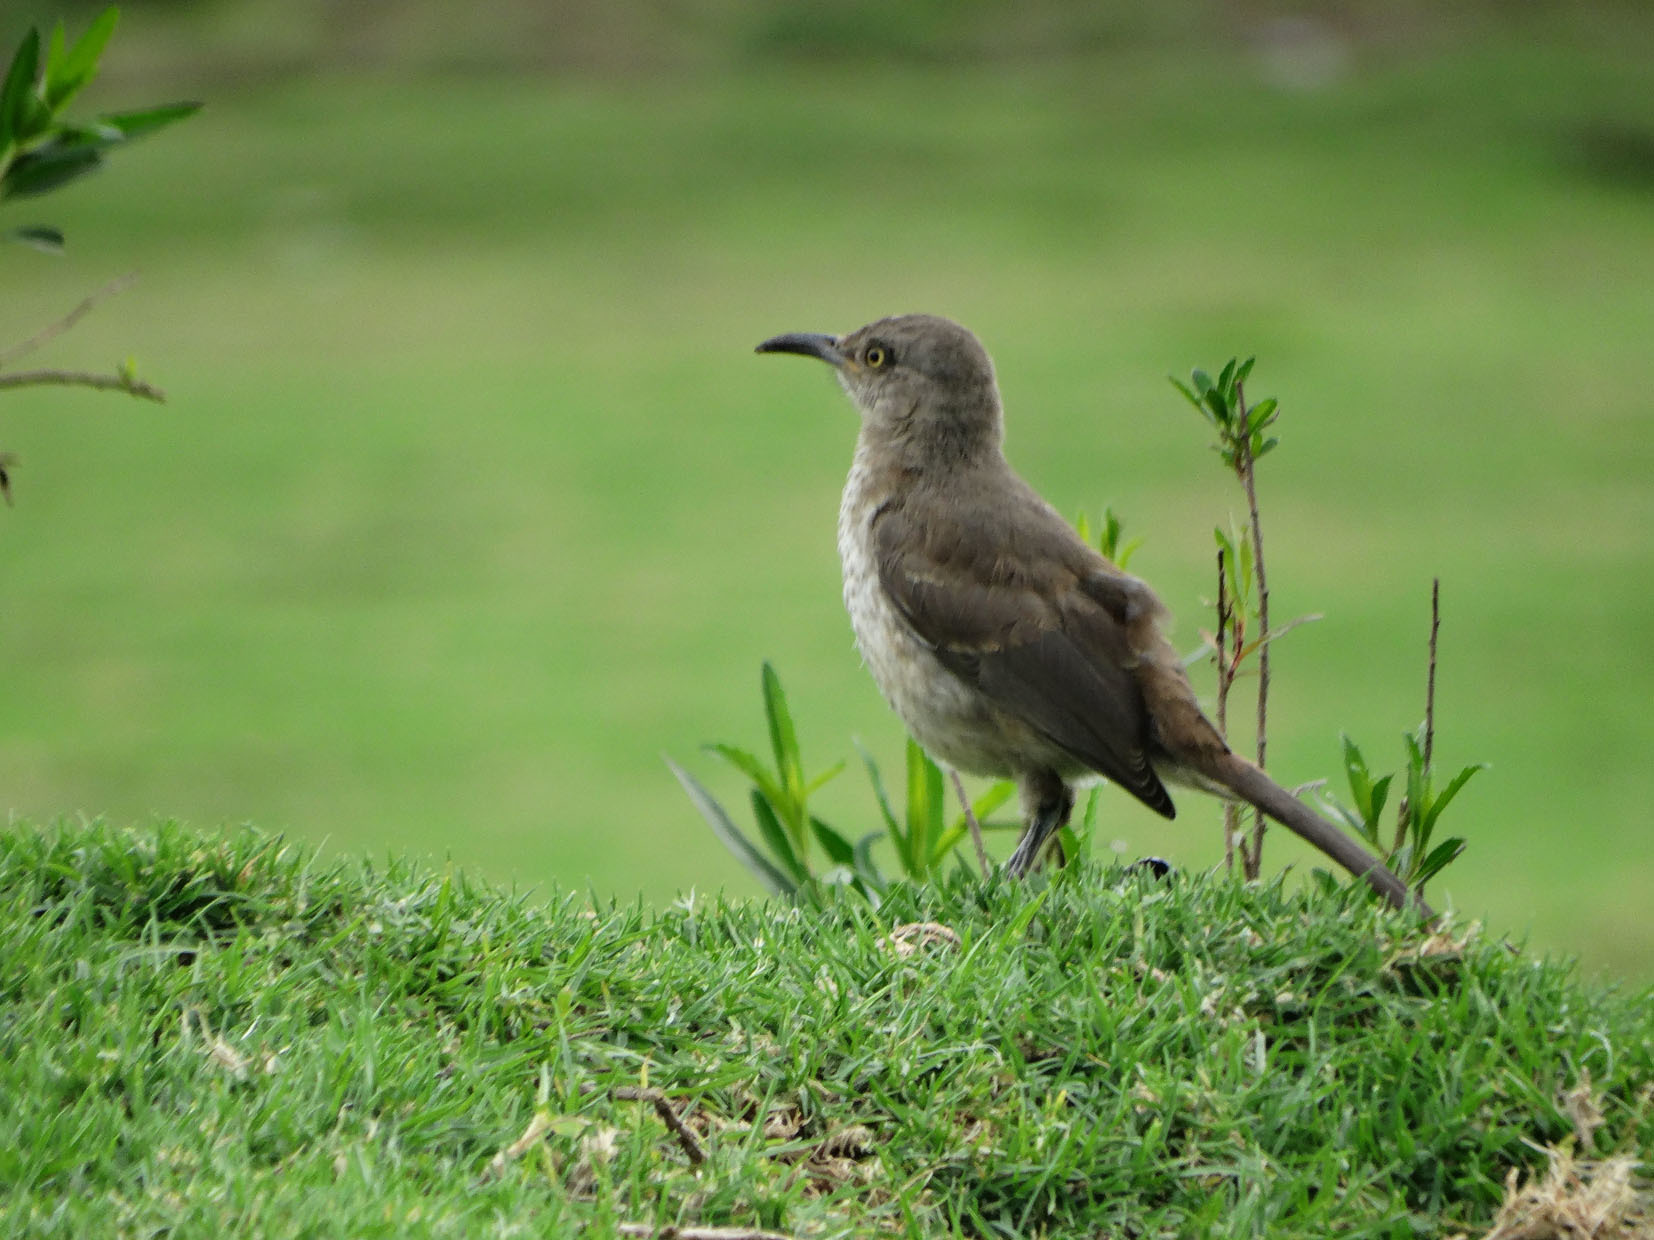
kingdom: Animalia
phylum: Chordata
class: Aves
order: Passeriformes
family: Mimidae
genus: Toxostoma
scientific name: Toxostoma curvirostre
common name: Curve-billed thrasher
